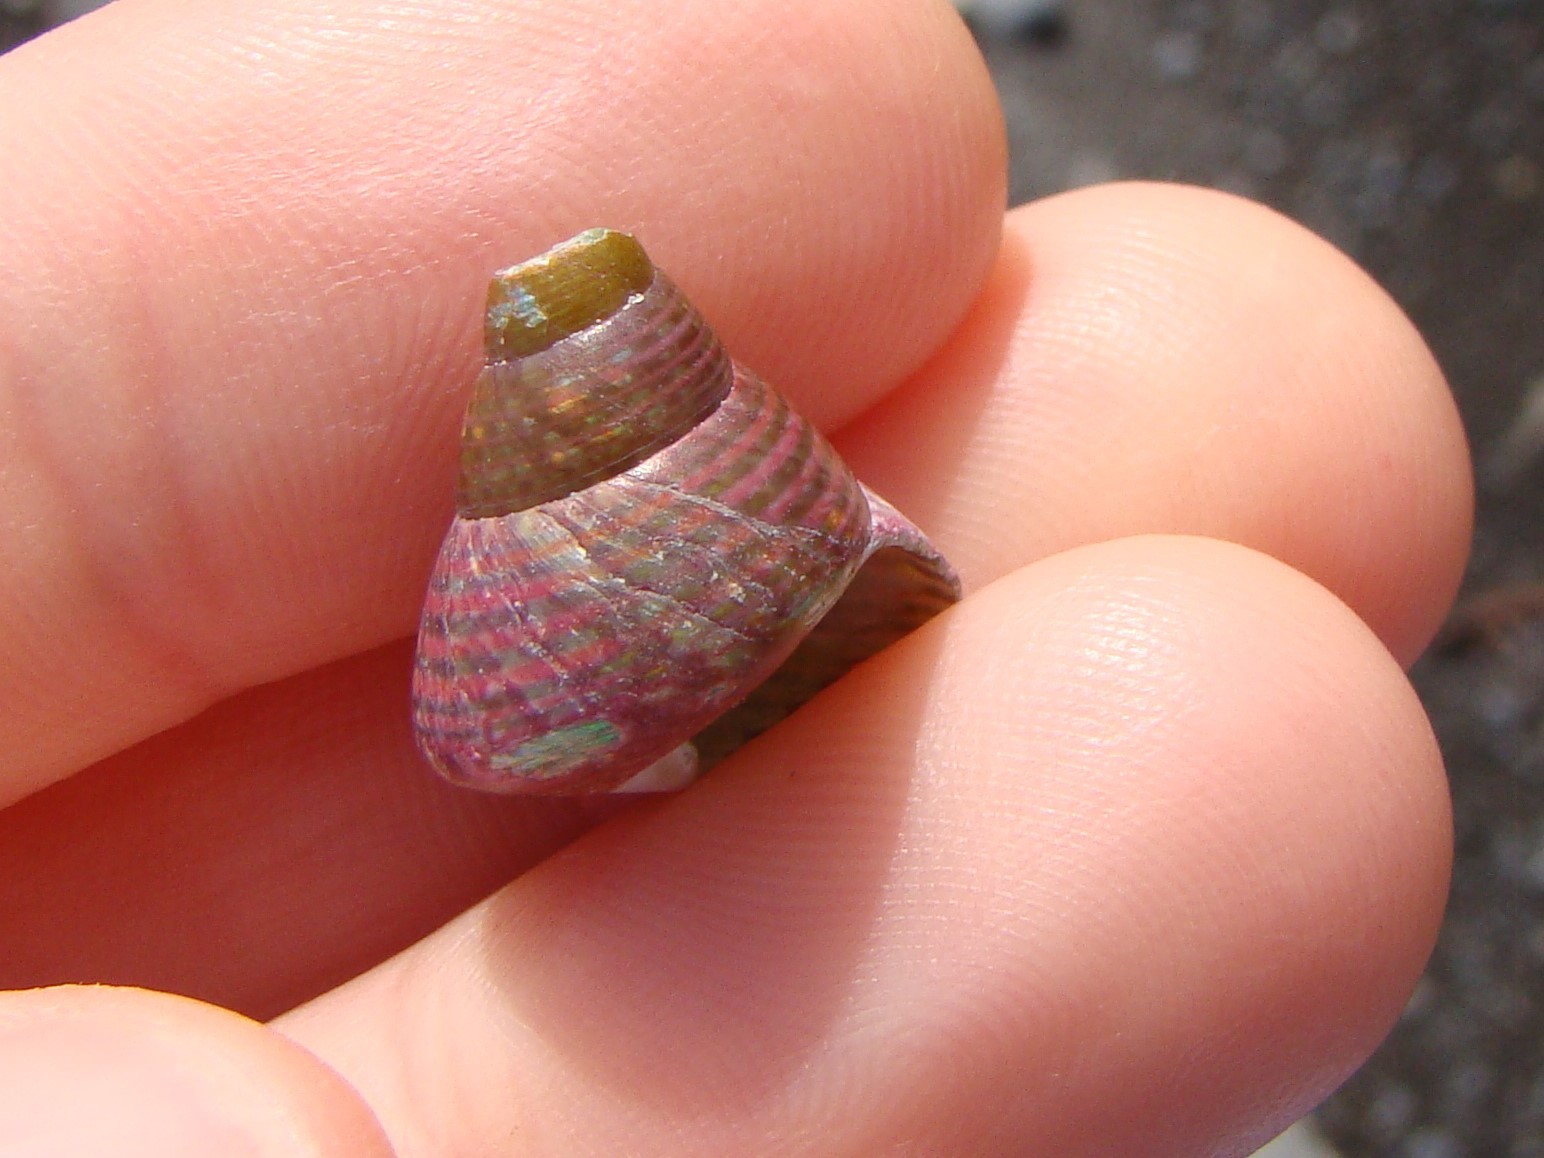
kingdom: Animalia
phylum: Mollusca
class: Gastropoda
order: Trochida
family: Trochidae
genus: Cantharidus
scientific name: Cantharidus opalus
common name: Opal jewel topsnail
